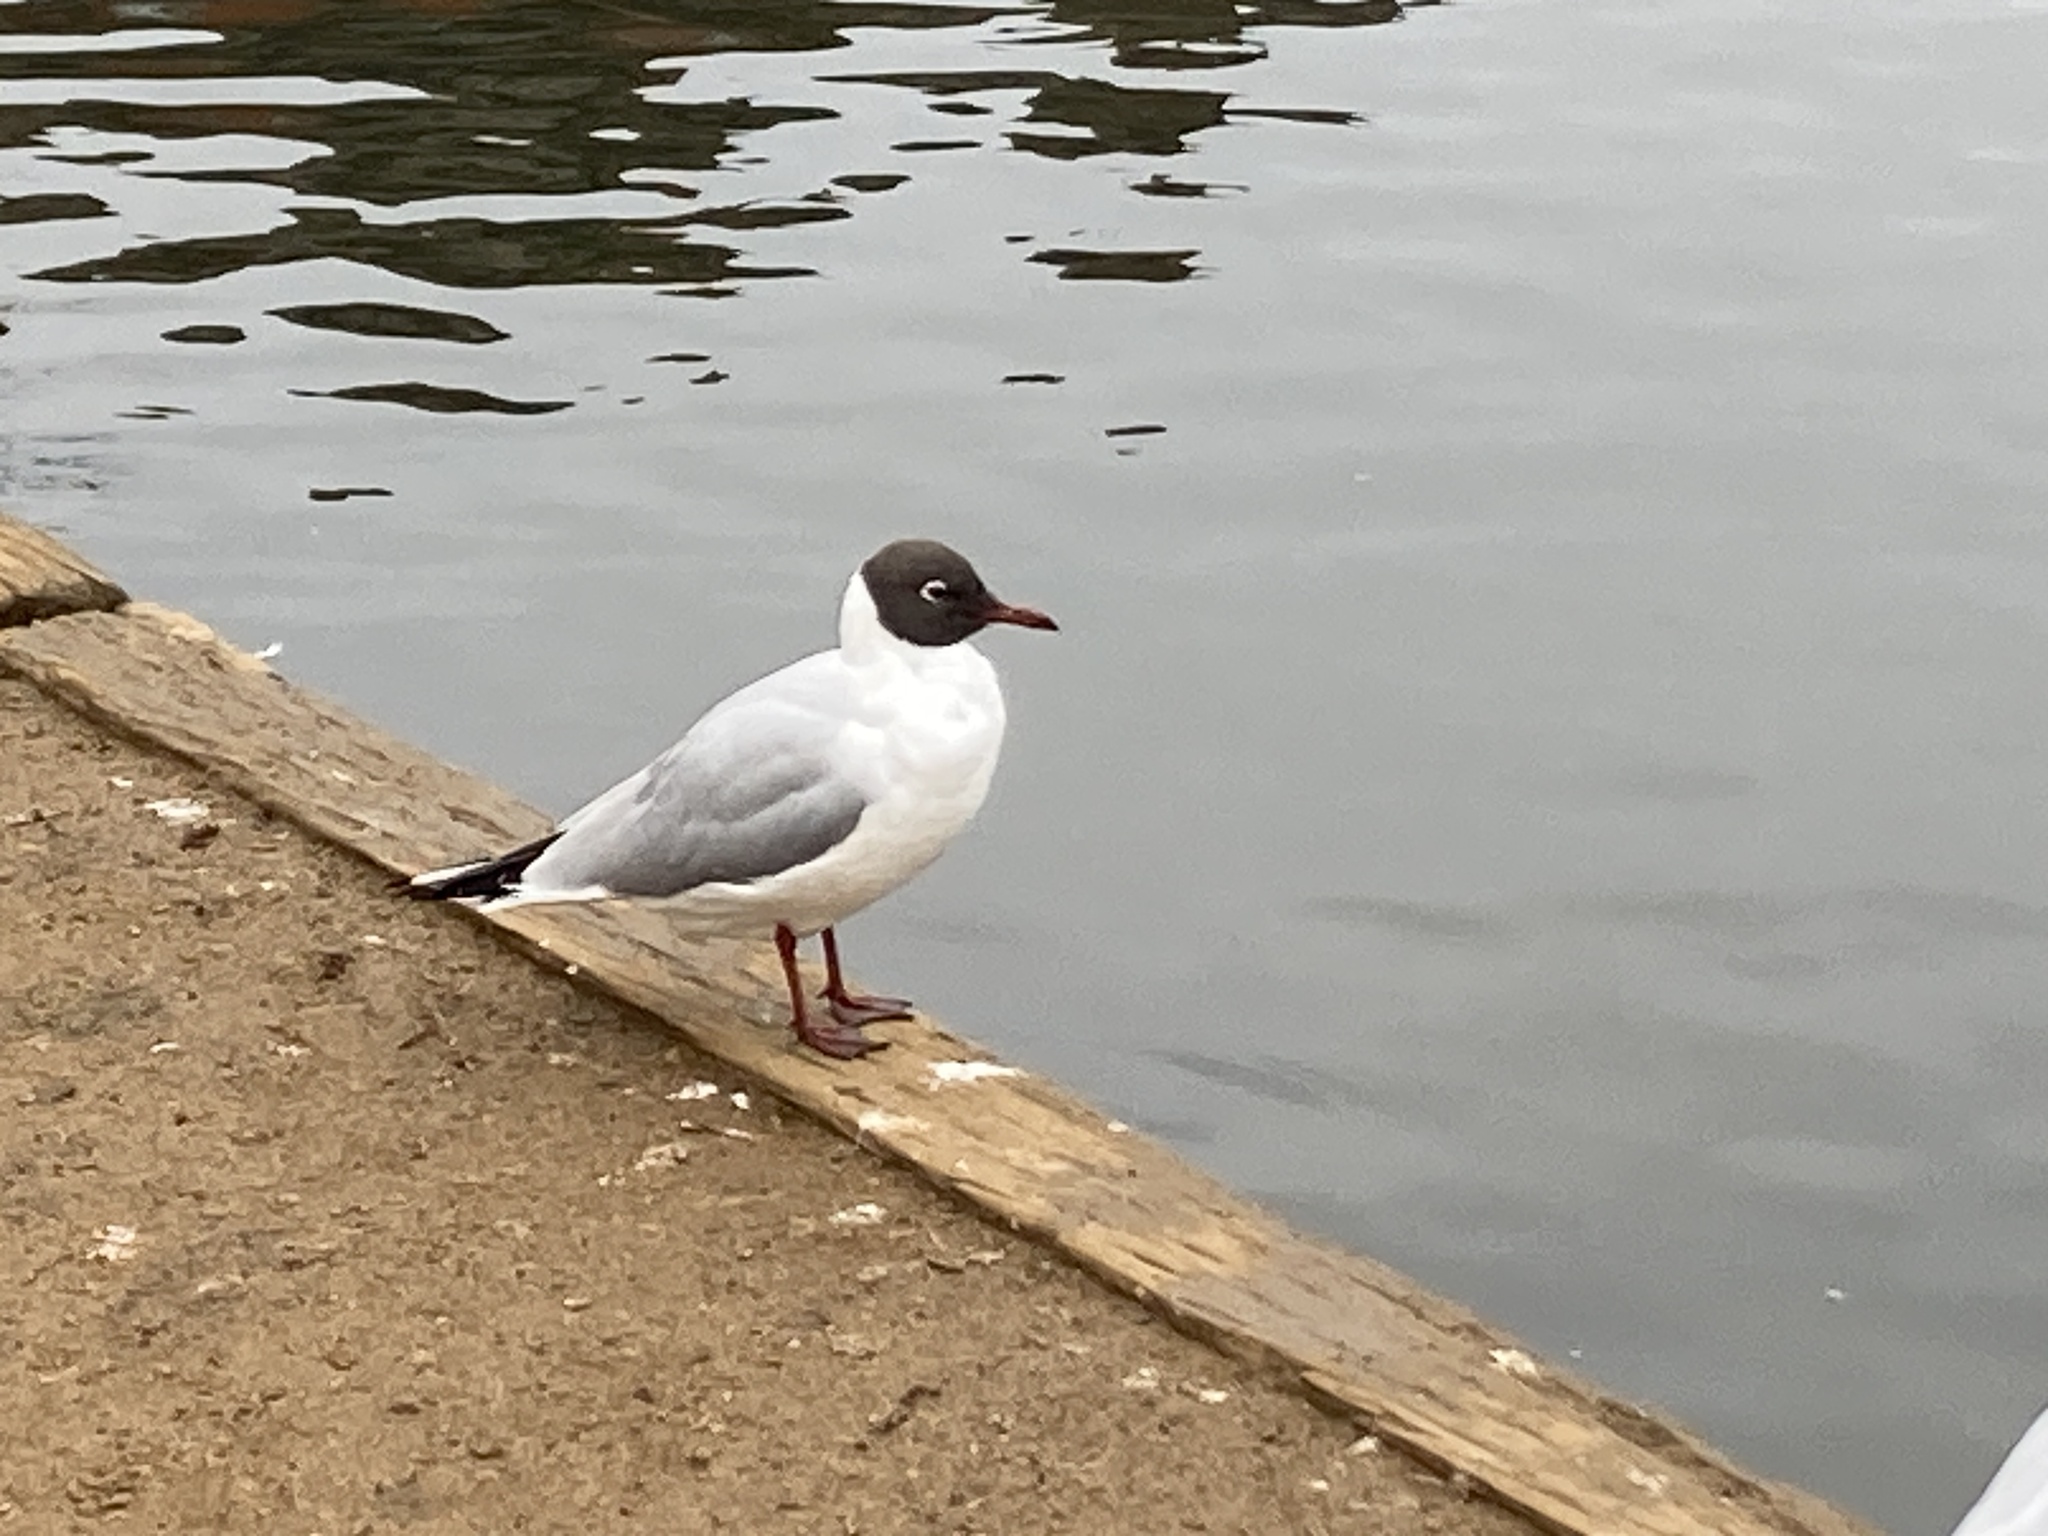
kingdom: Animalia
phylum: Chordata
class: Aves
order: Charadriiformes
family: Laridae
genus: Chroicocephalus
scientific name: Chroicocephalus ridibundus
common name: Black-headed gull
